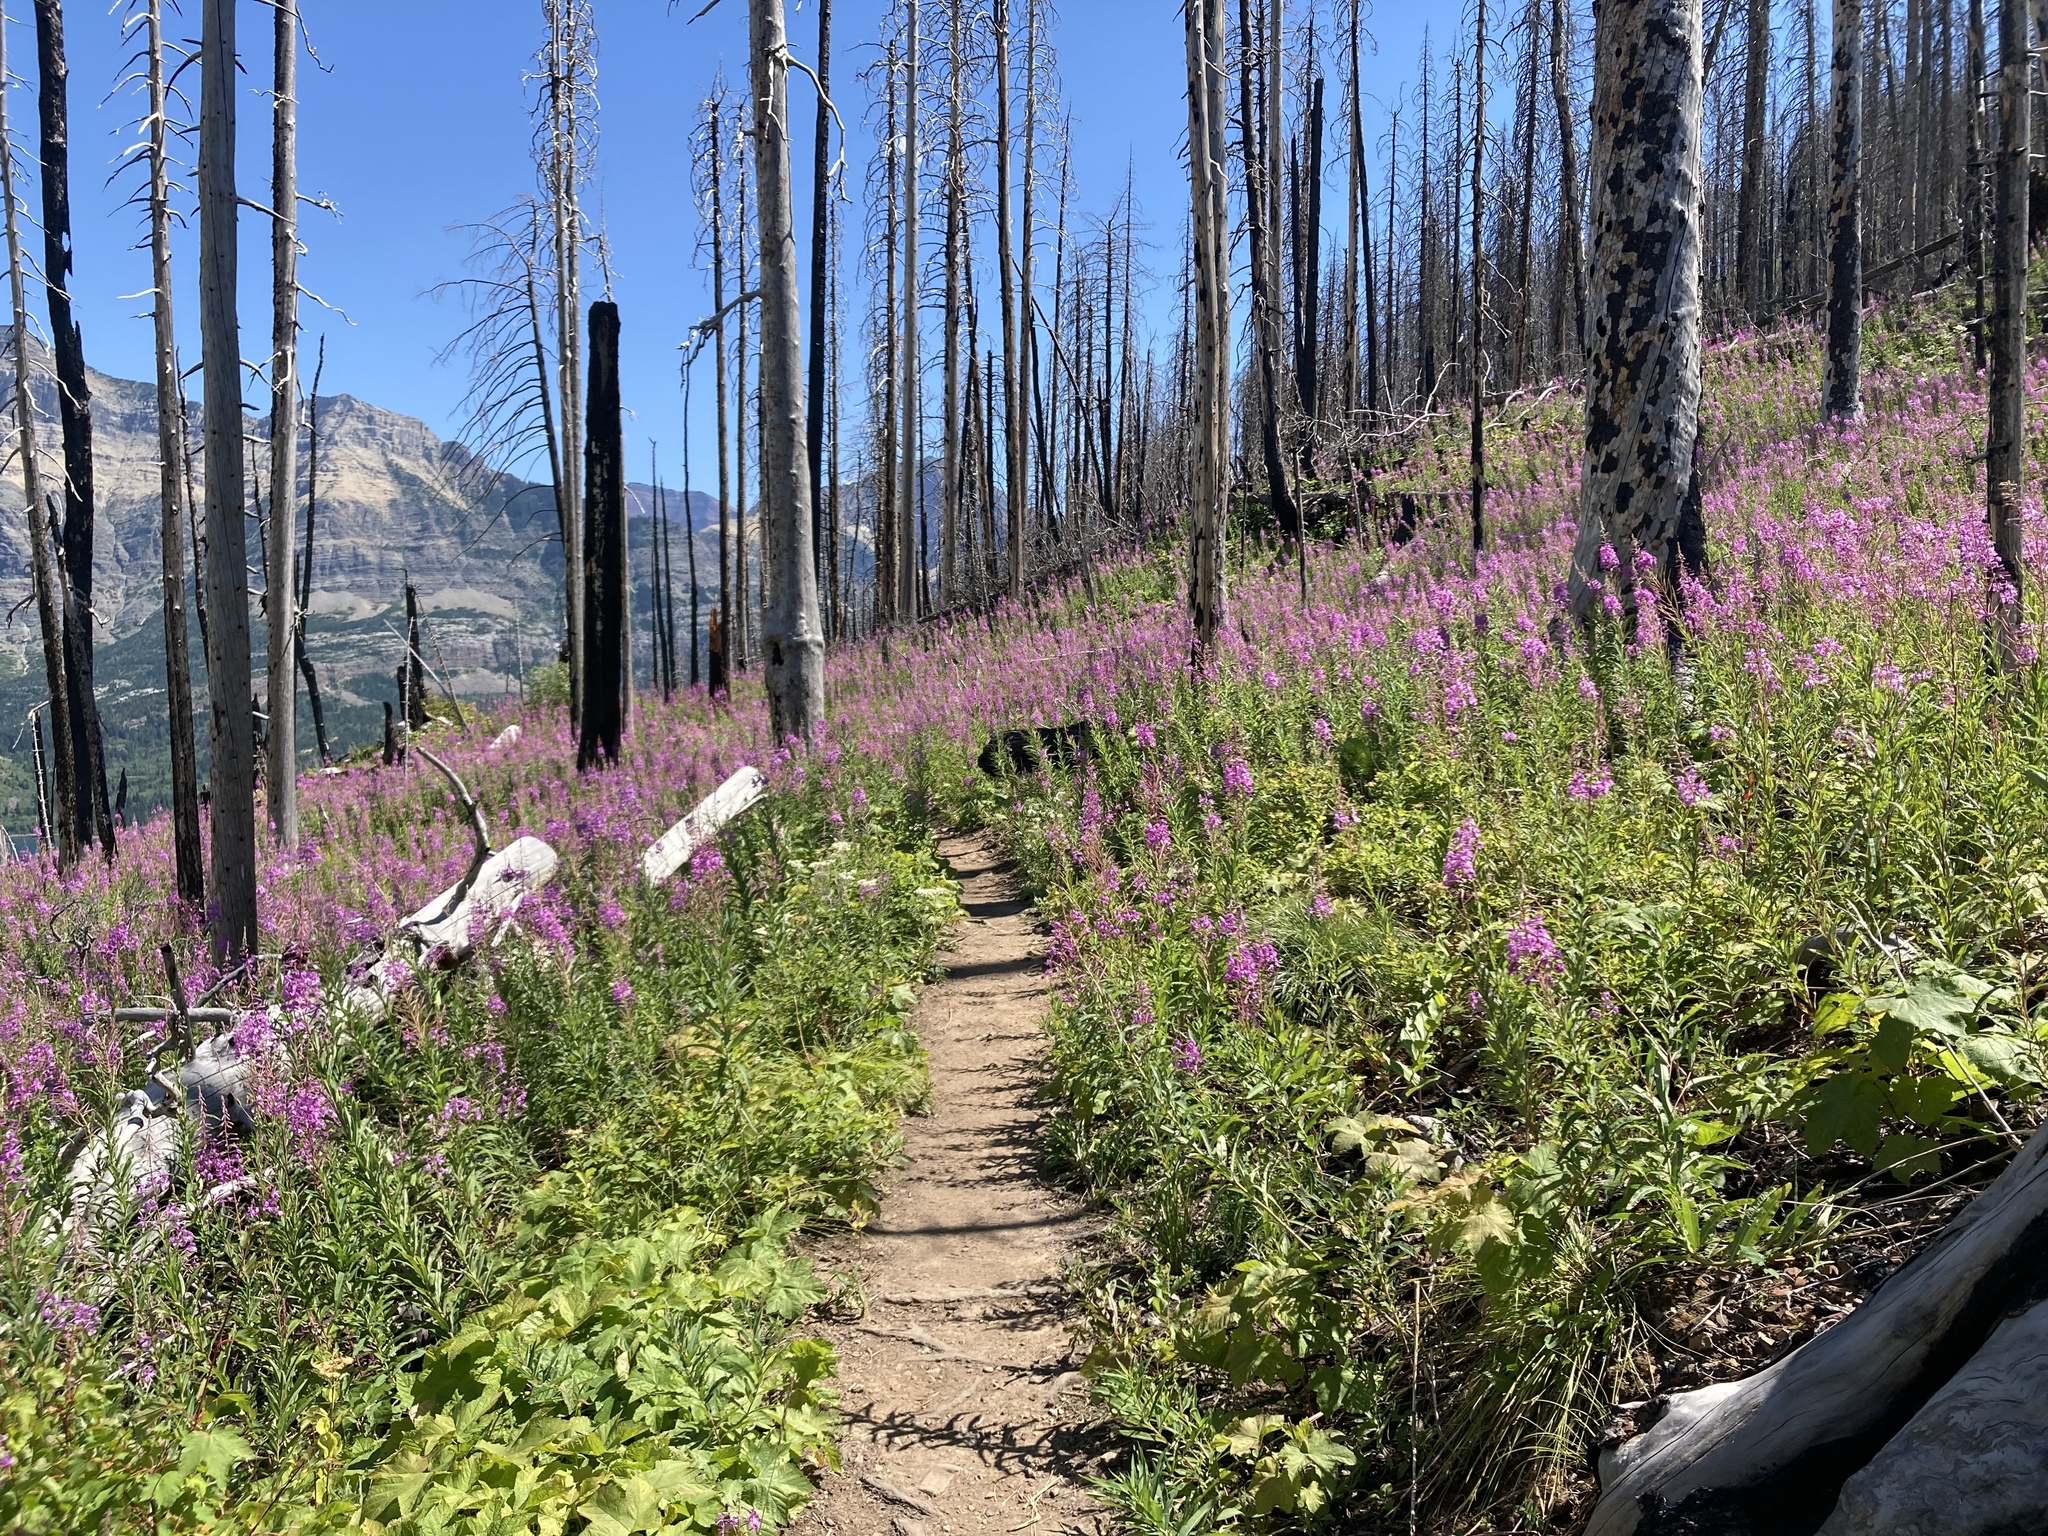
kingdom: Plantae
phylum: Tracheophyta
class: Magnoliopsida
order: Myrtales
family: Onagraceae
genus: Chamaenerion
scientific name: Chamaenerion angustifolium
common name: Fireweed
